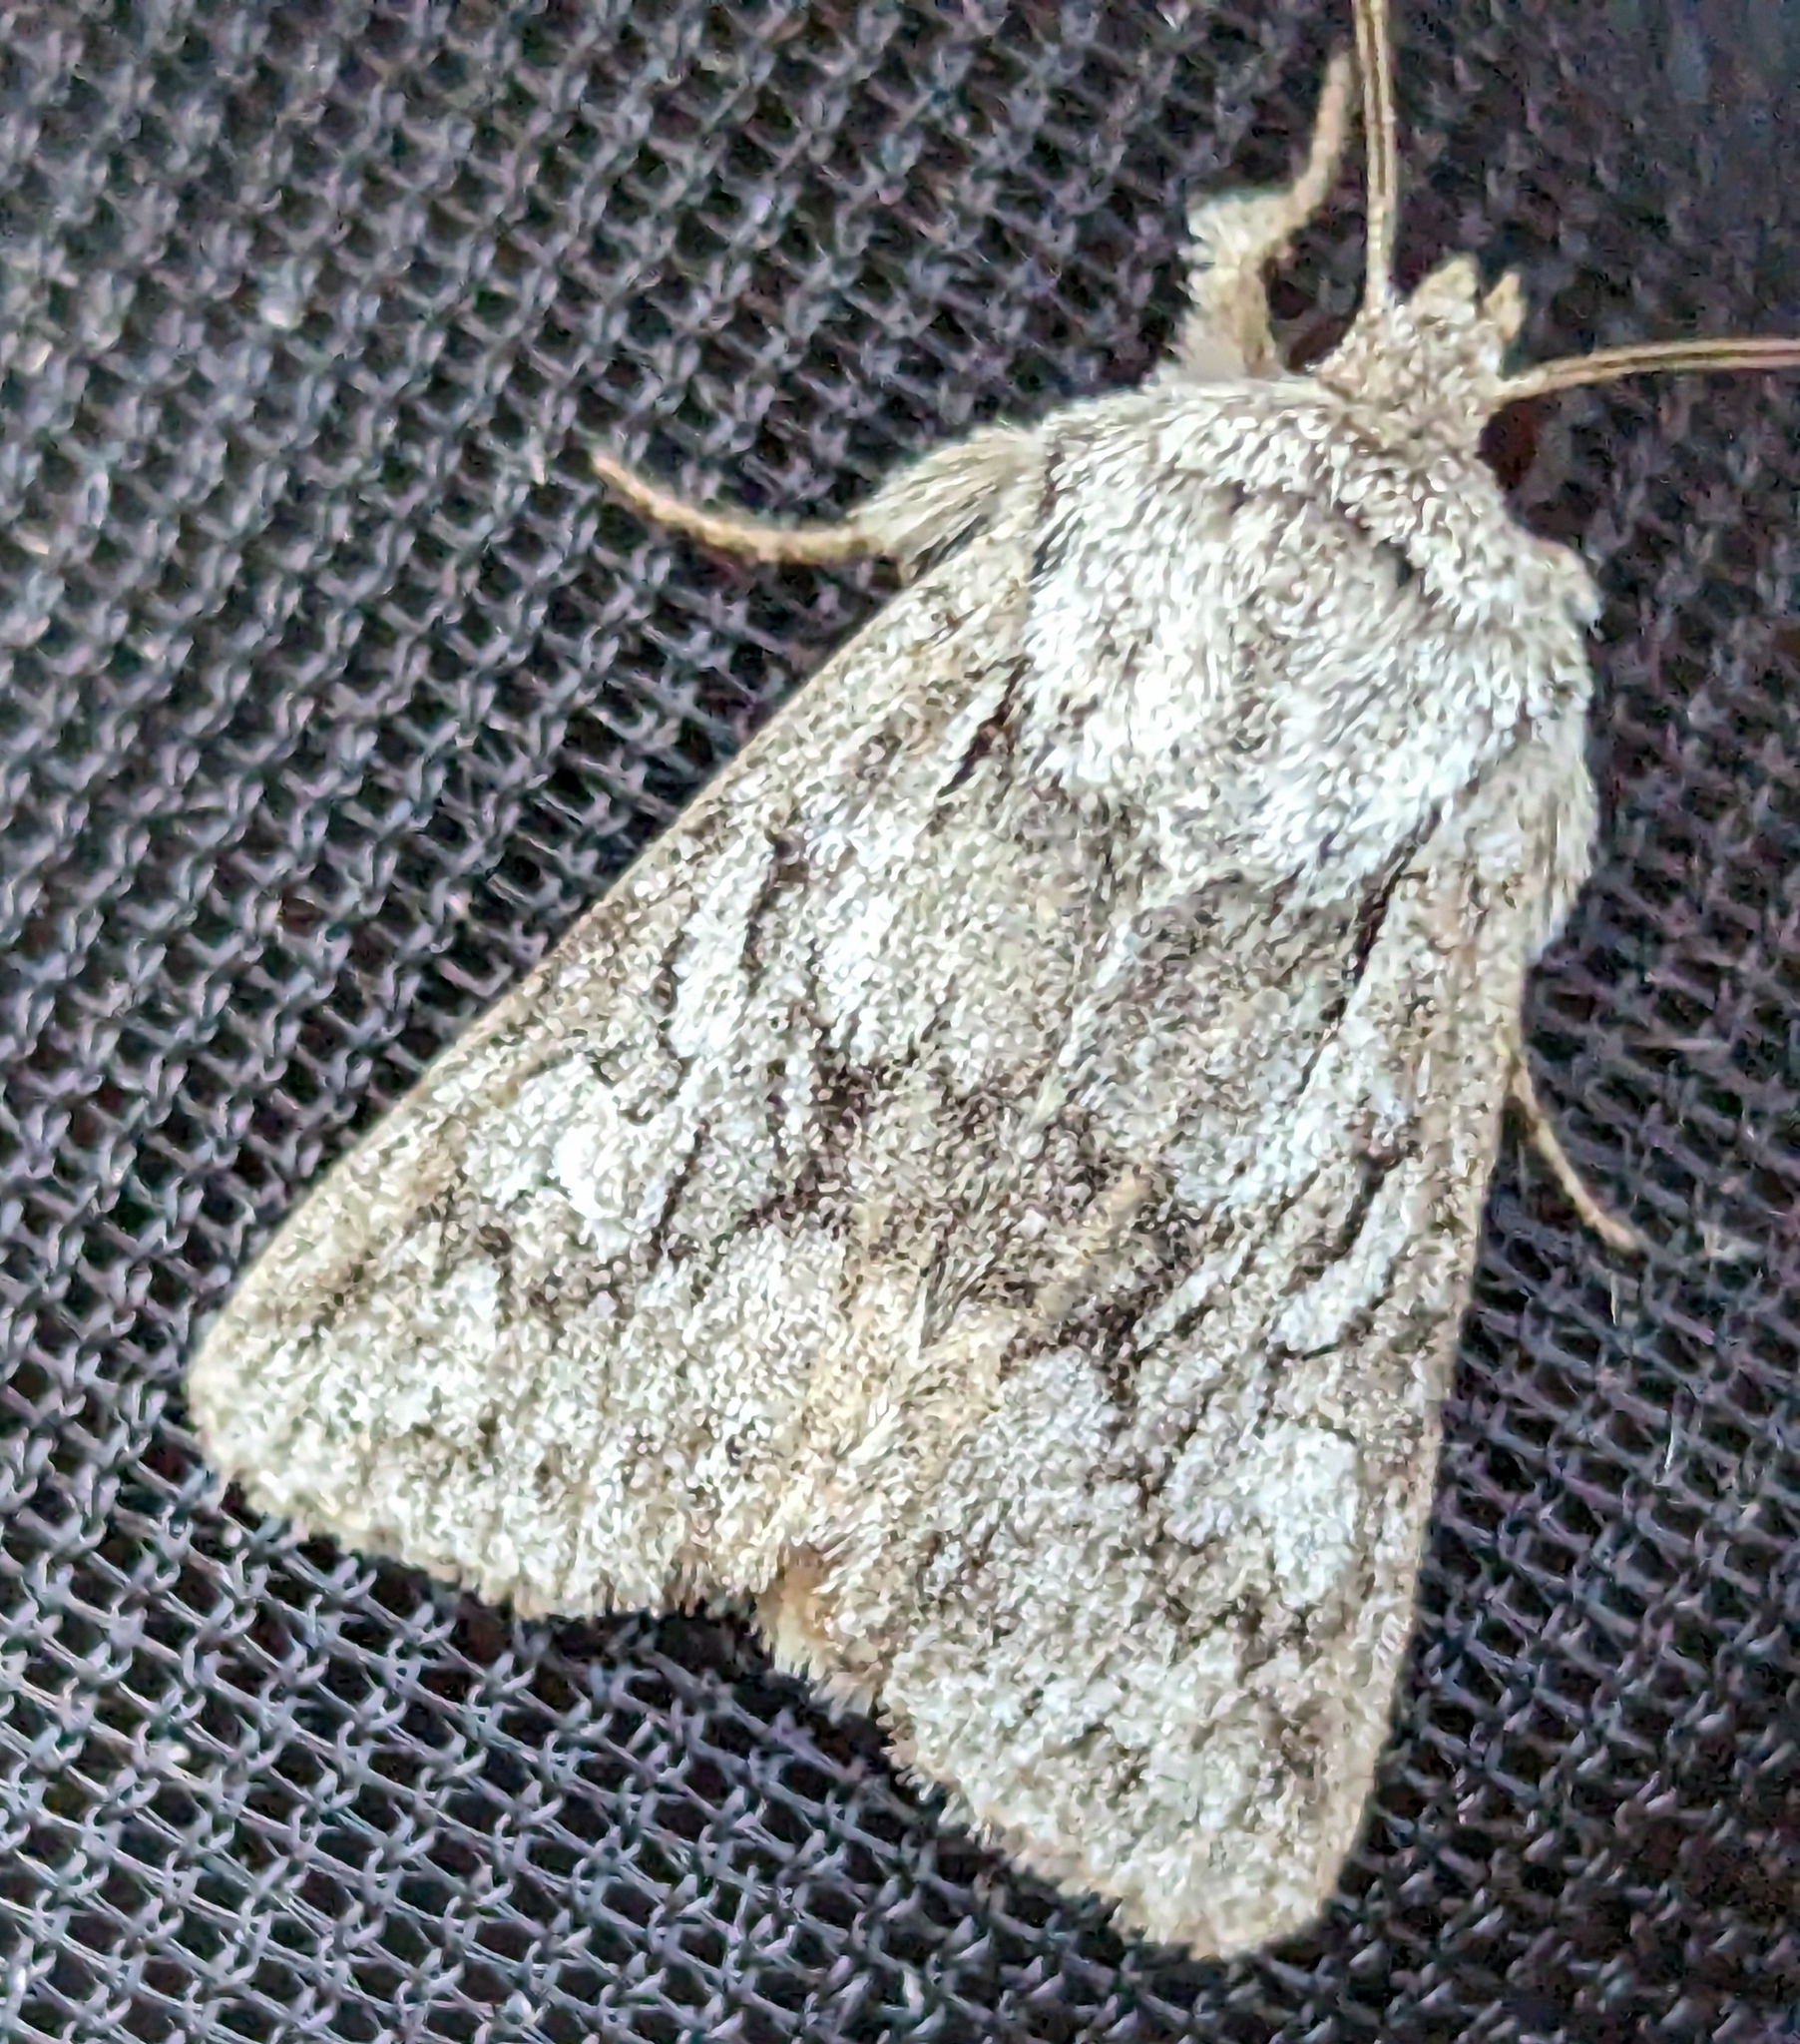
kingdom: Animalia
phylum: Arthropoda
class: Insecta
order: Lepidoptera
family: Noctuidae
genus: Lacinipolia
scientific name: Lacinipolia patalis
